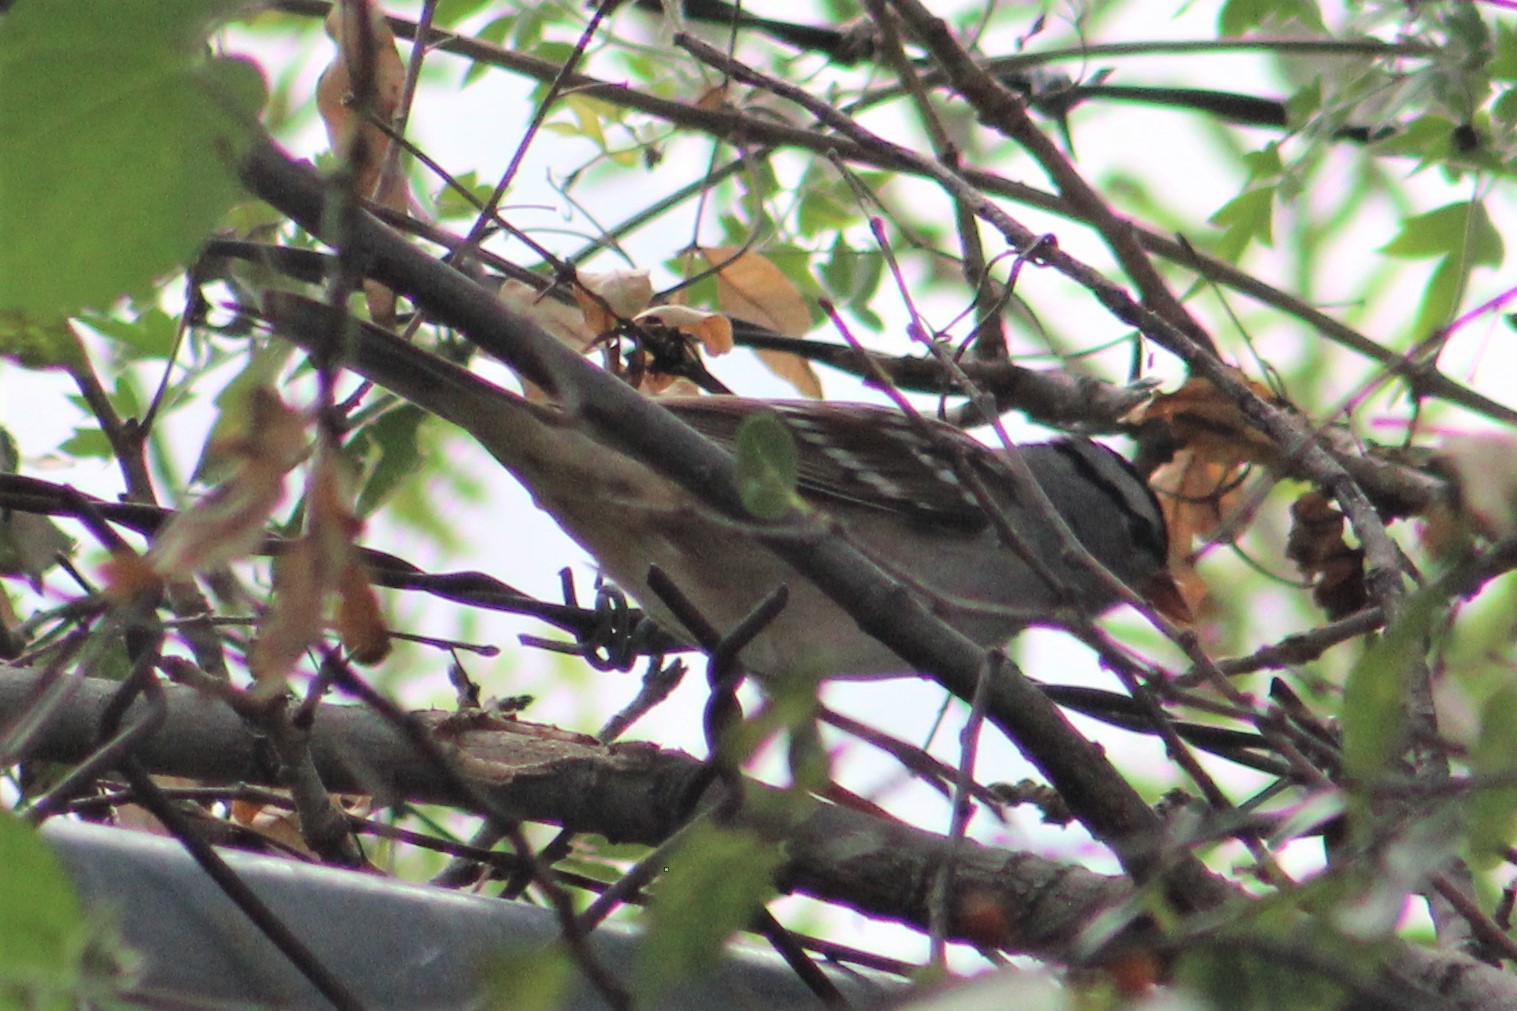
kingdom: Animalia
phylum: Chordata
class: Aves
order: Passeriformes
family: Passerellidae
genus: Zonotrichia
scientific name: Zonotrichia leucophrys
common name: White-crowned sparrow
